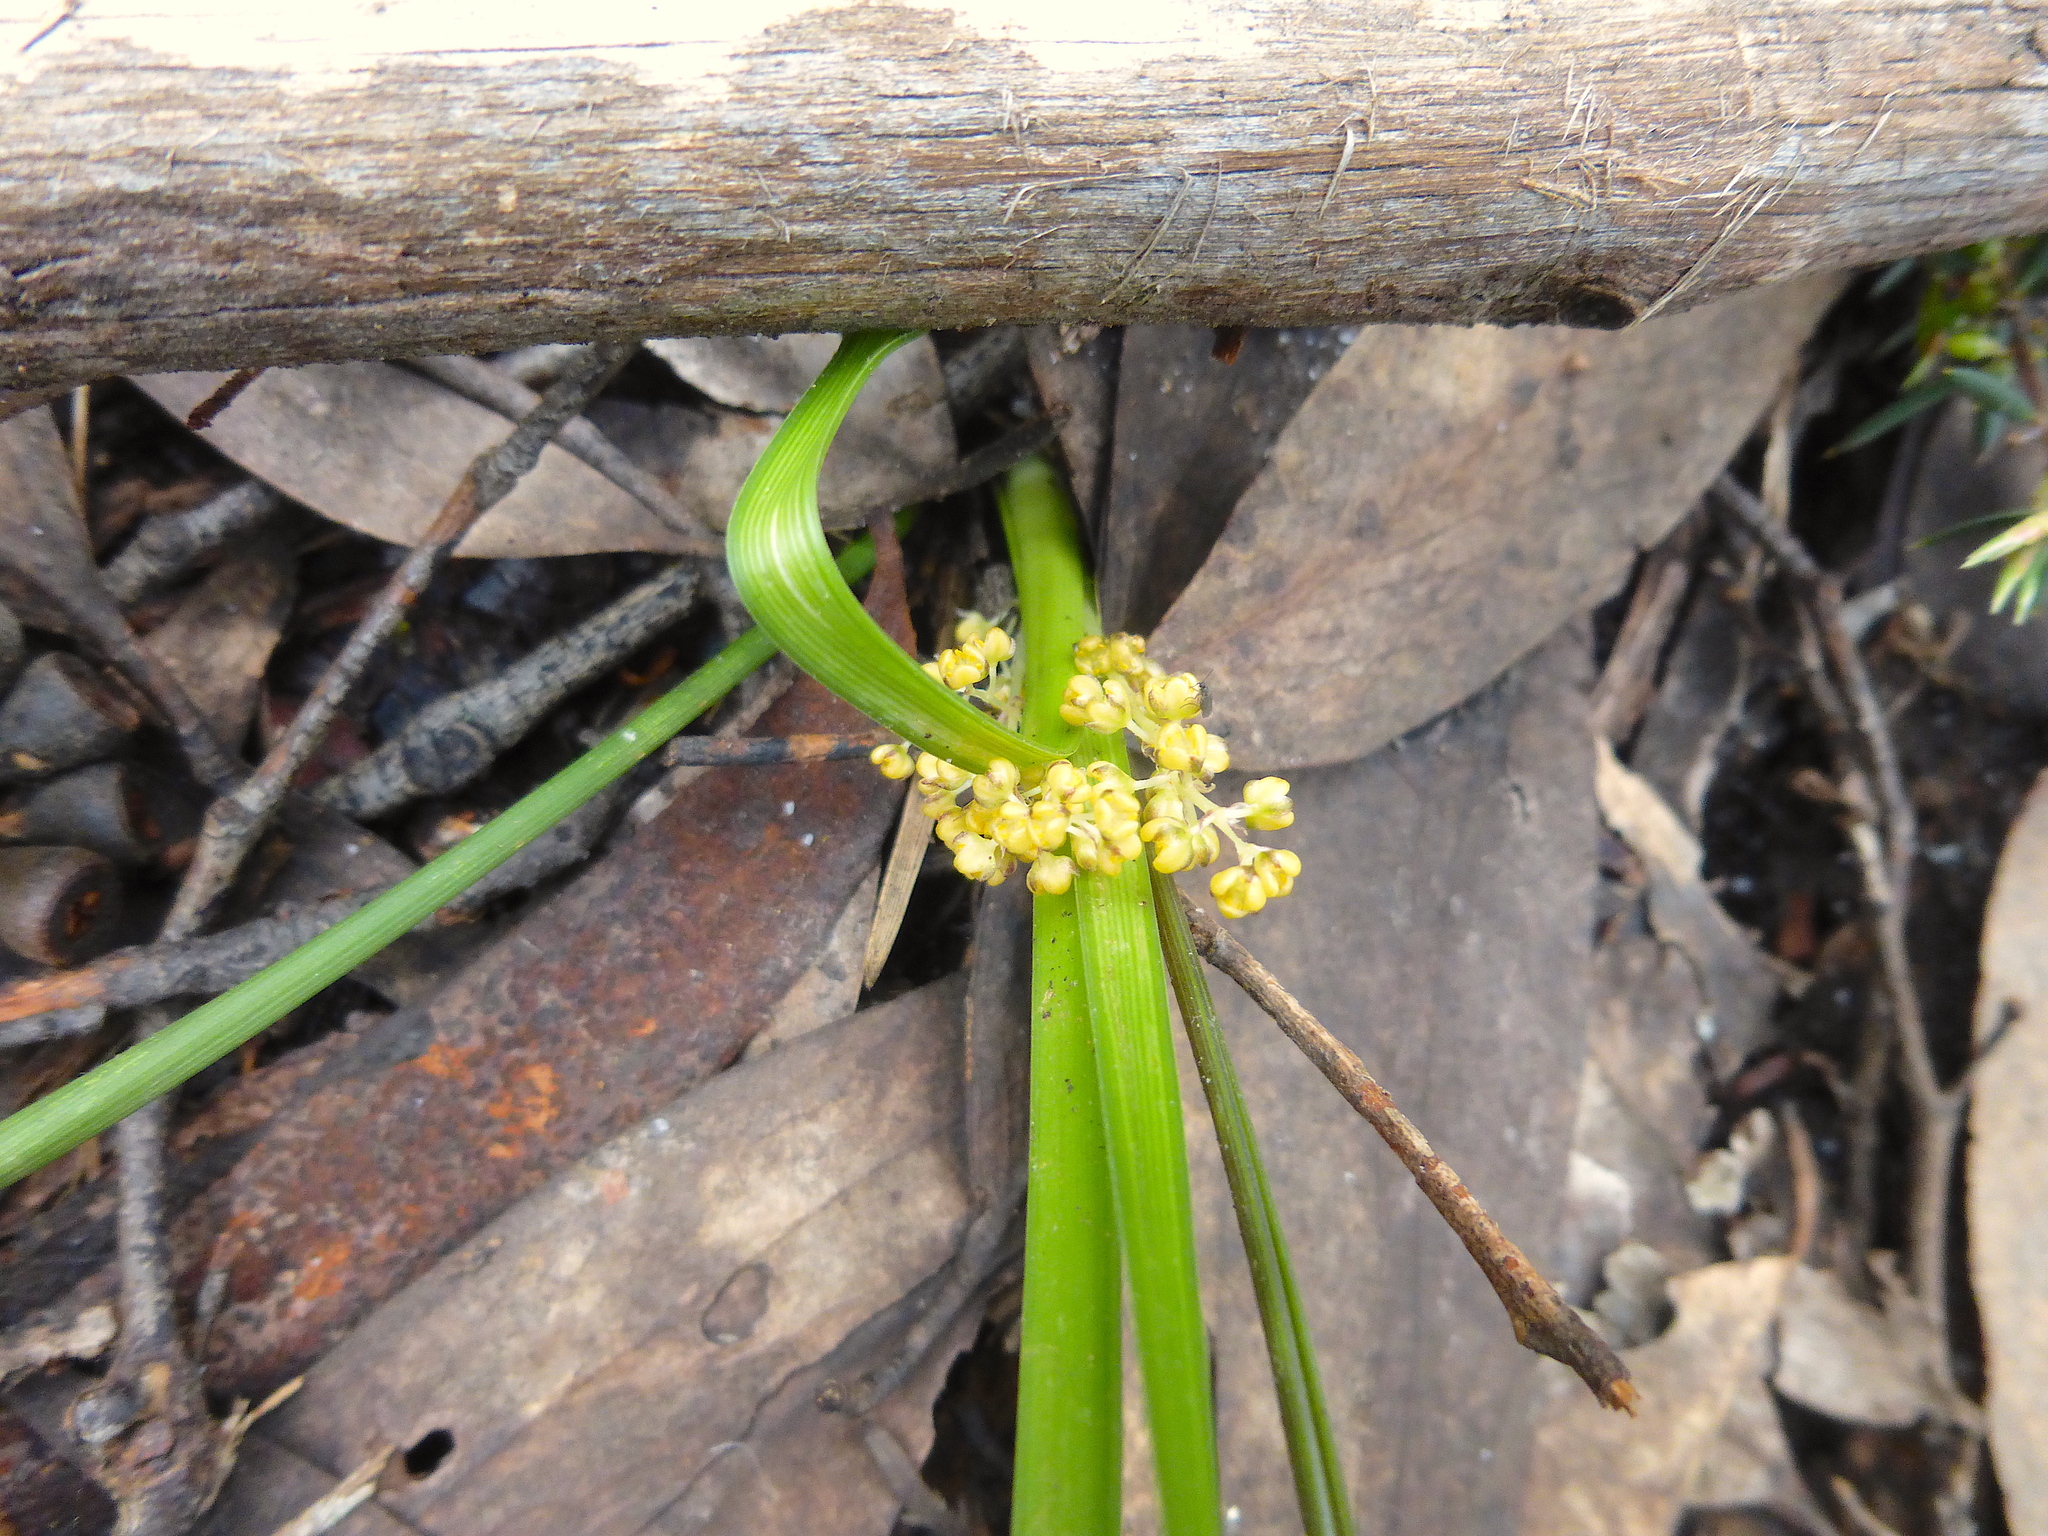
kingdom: Plantae
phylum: Tracheophyta
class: Liliopsida
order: Asparagales
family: Asparagaceae
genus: Lomandra
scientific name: Lomandra filiformis
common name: Wattle mat-rush
